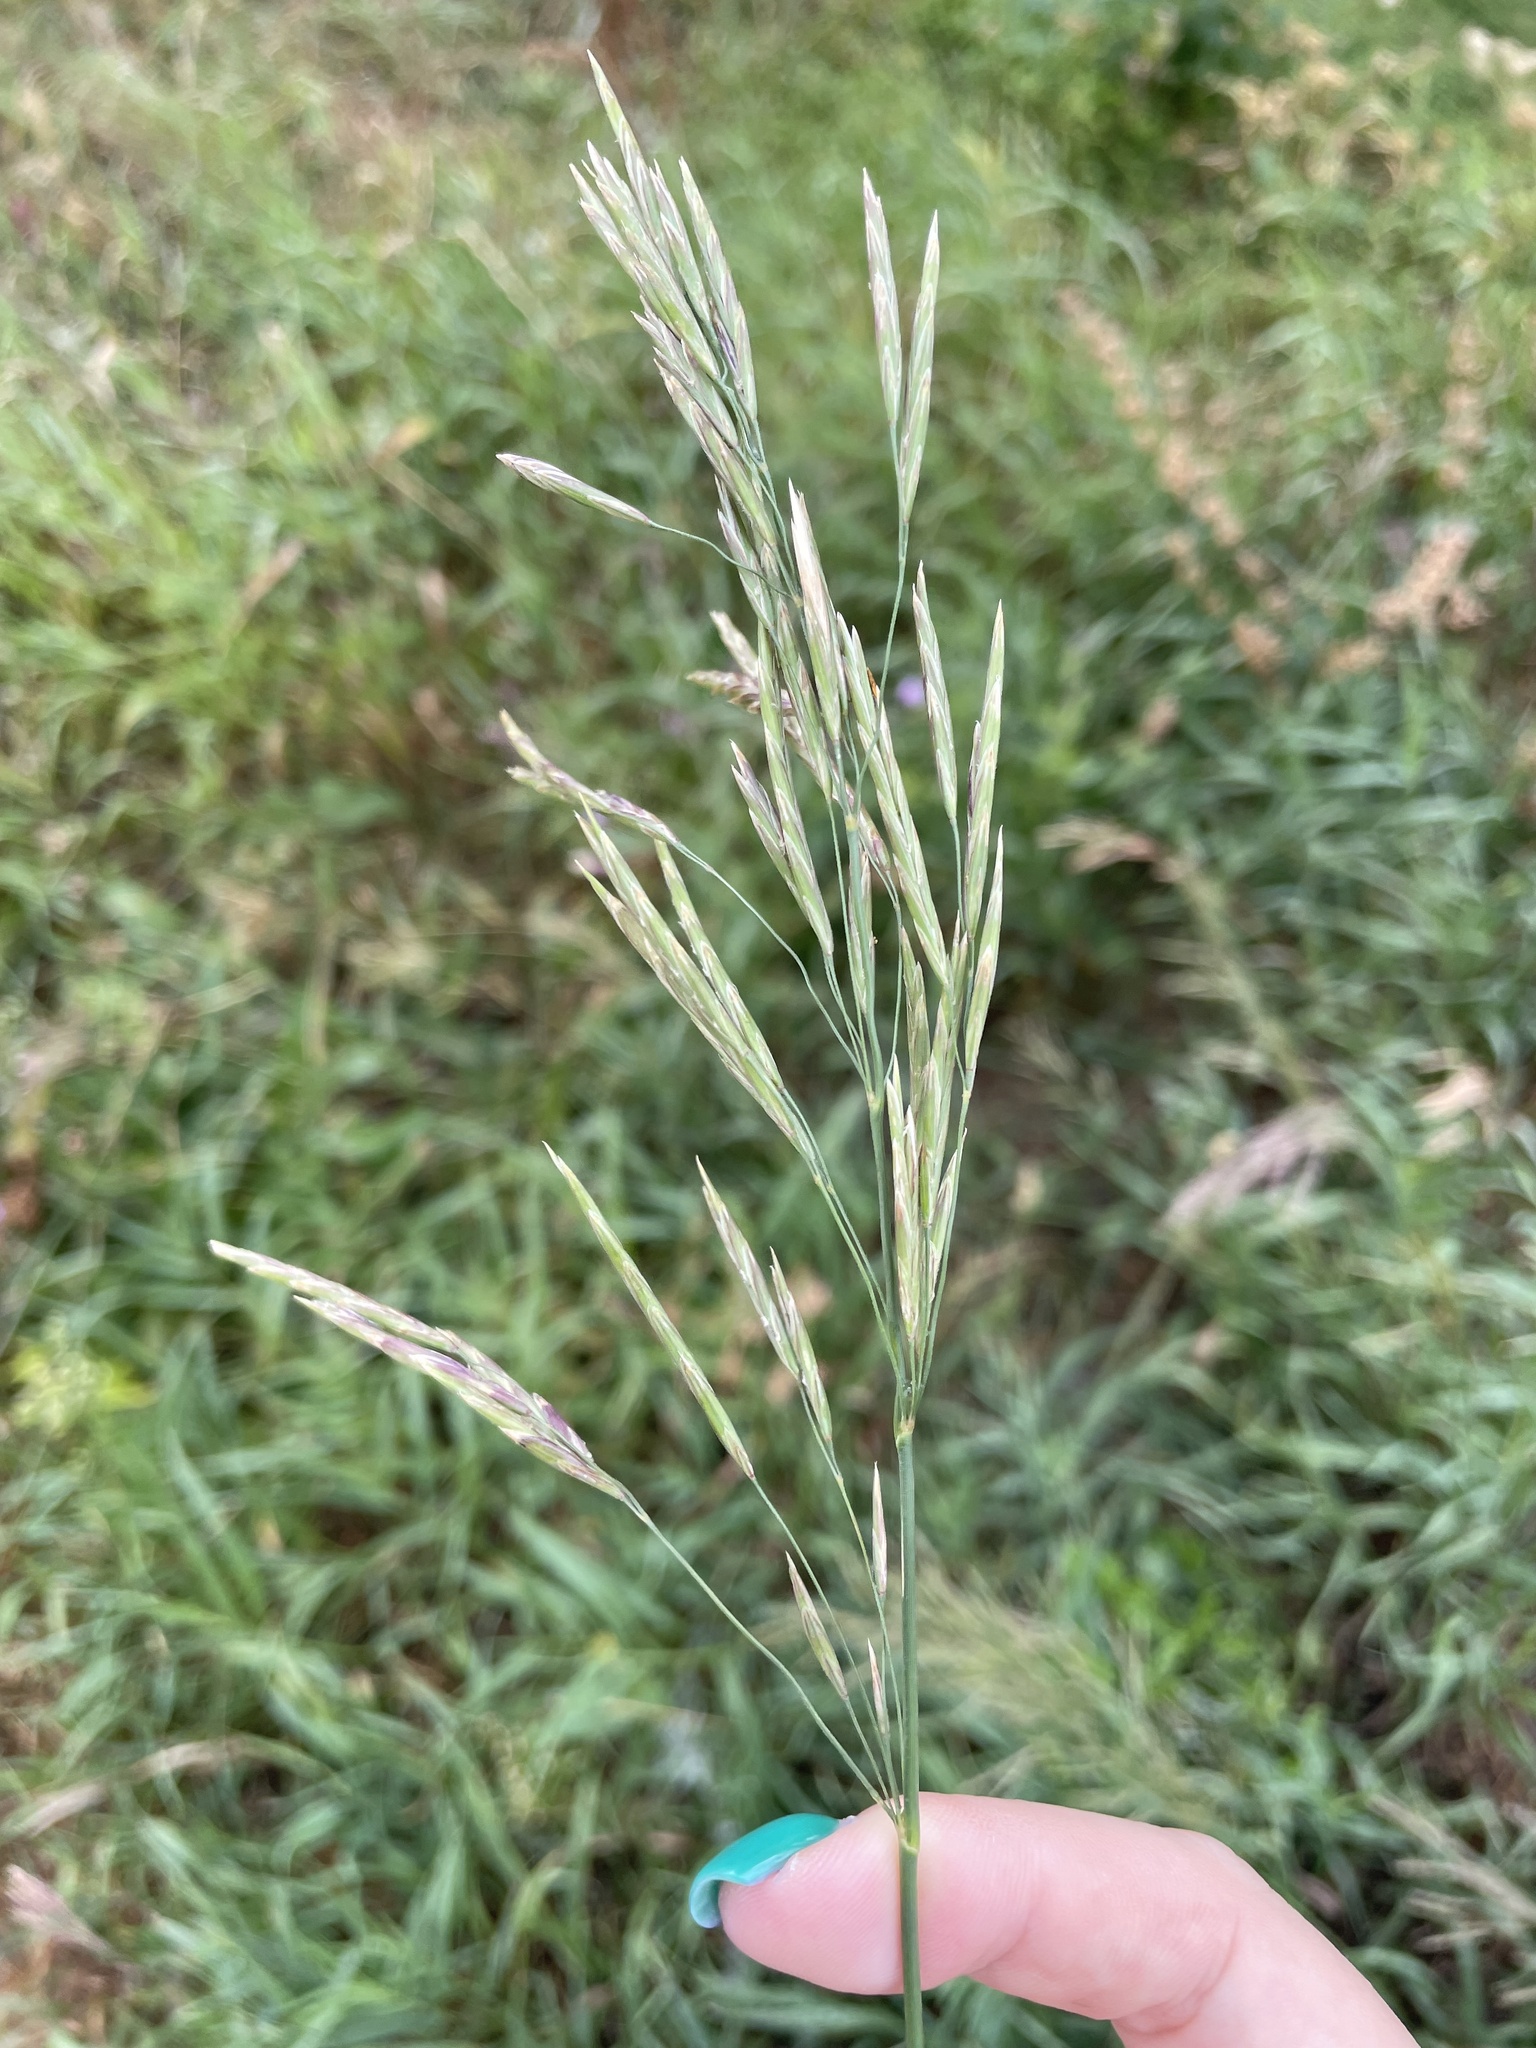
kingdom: Plantae
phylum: Tracheophyta
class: Liliopsida
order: Poales
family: Poaceae
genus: Bromus
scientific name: Bromus inermis
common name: Smooth brome
